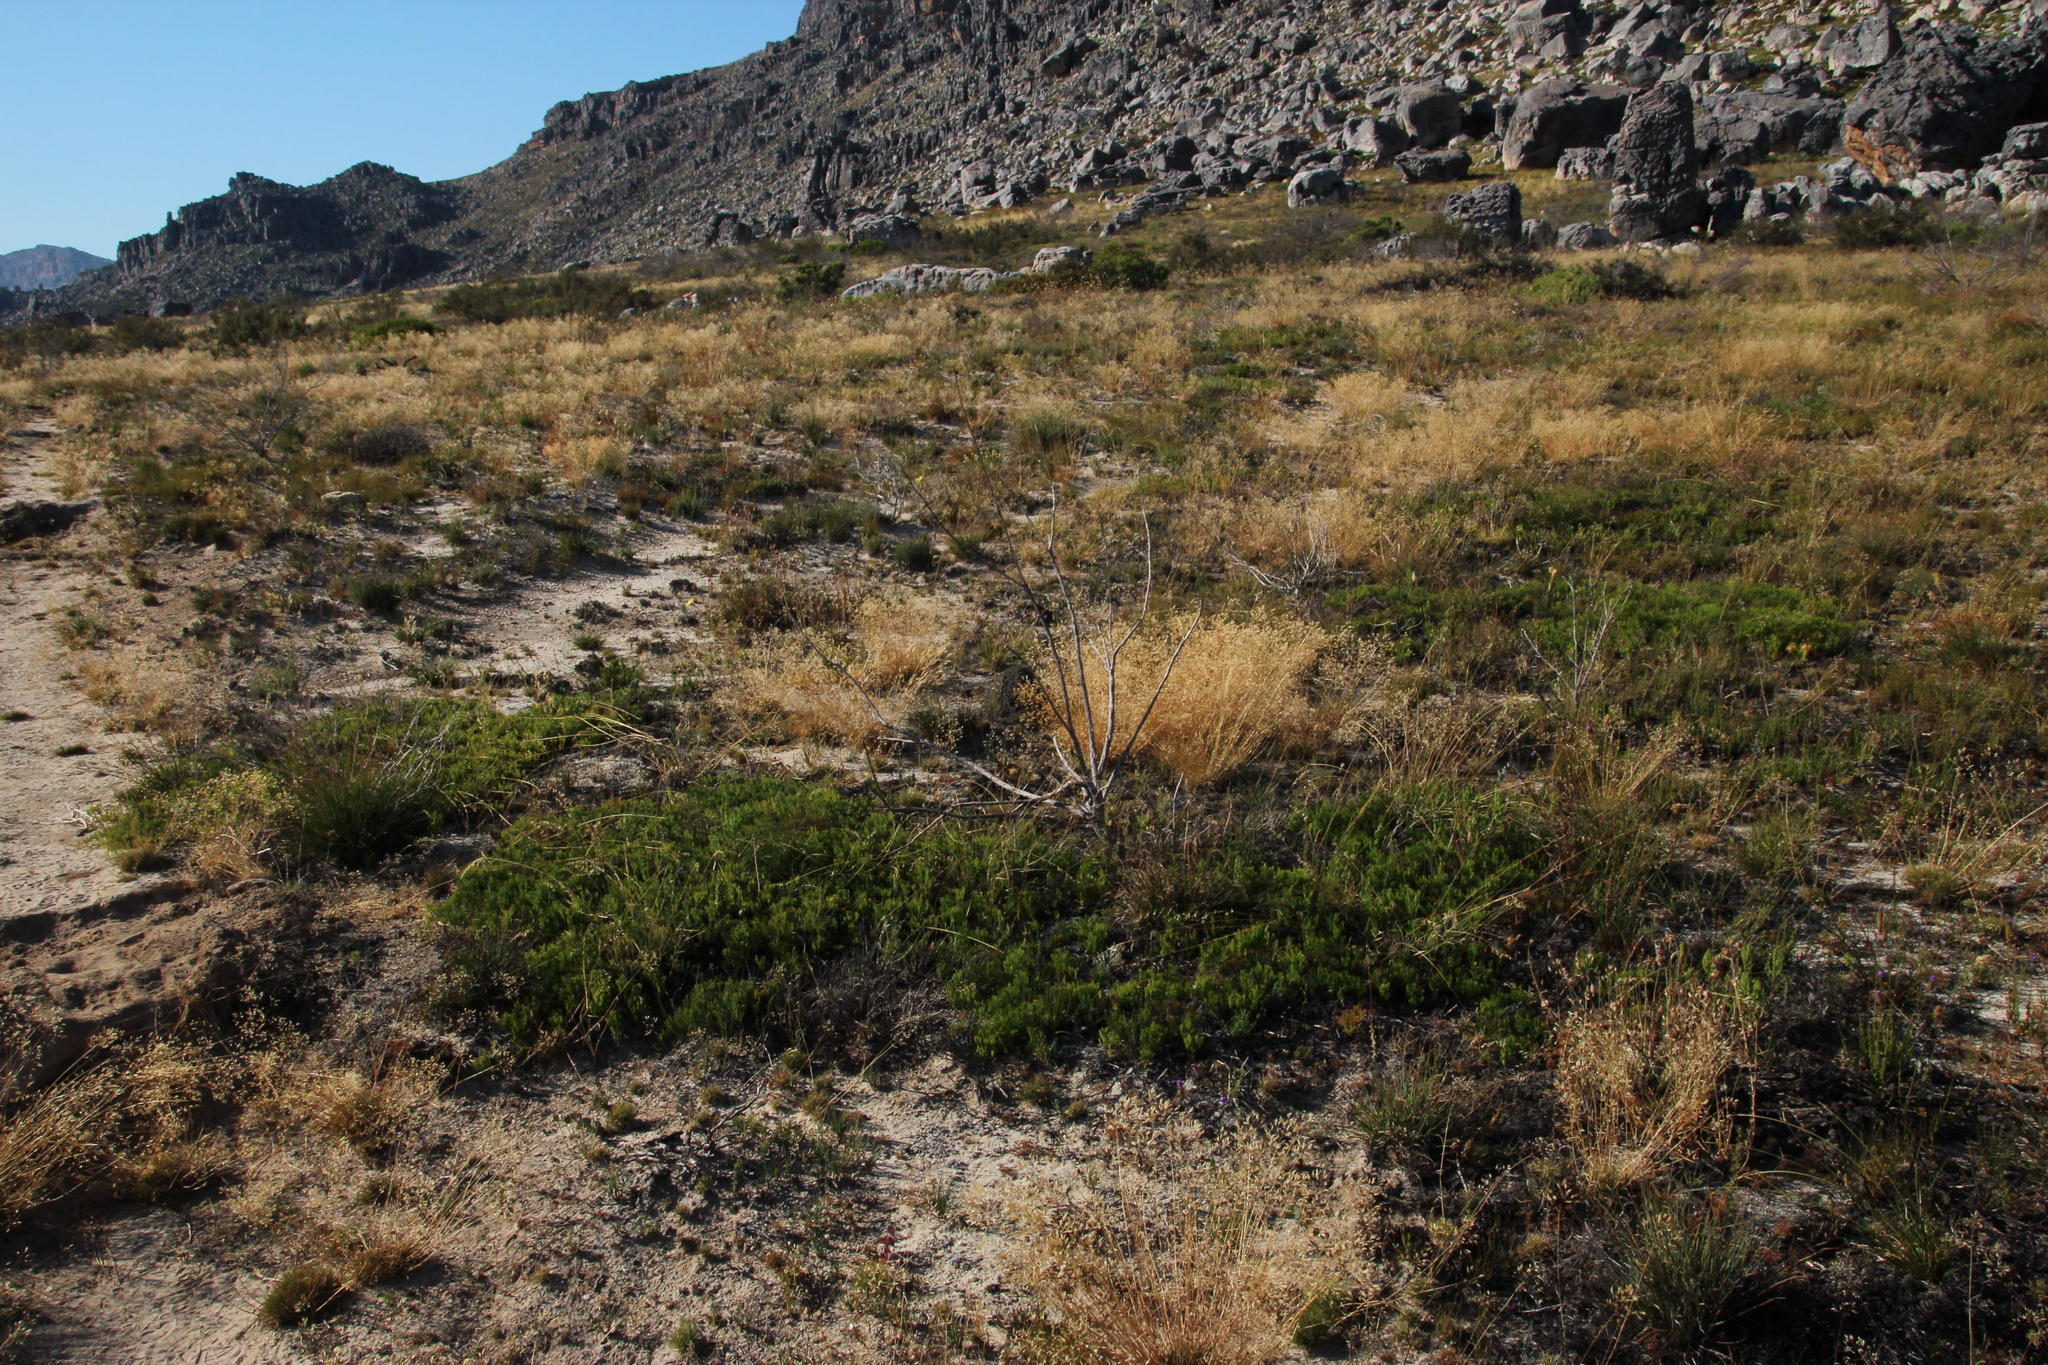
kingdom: Plantae
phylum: Tracheophyta
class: Magnoliopsida
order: Proteales
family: Proteaceae
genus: Serruria
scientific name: Serruria cygnea
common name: Swan spiderhead
